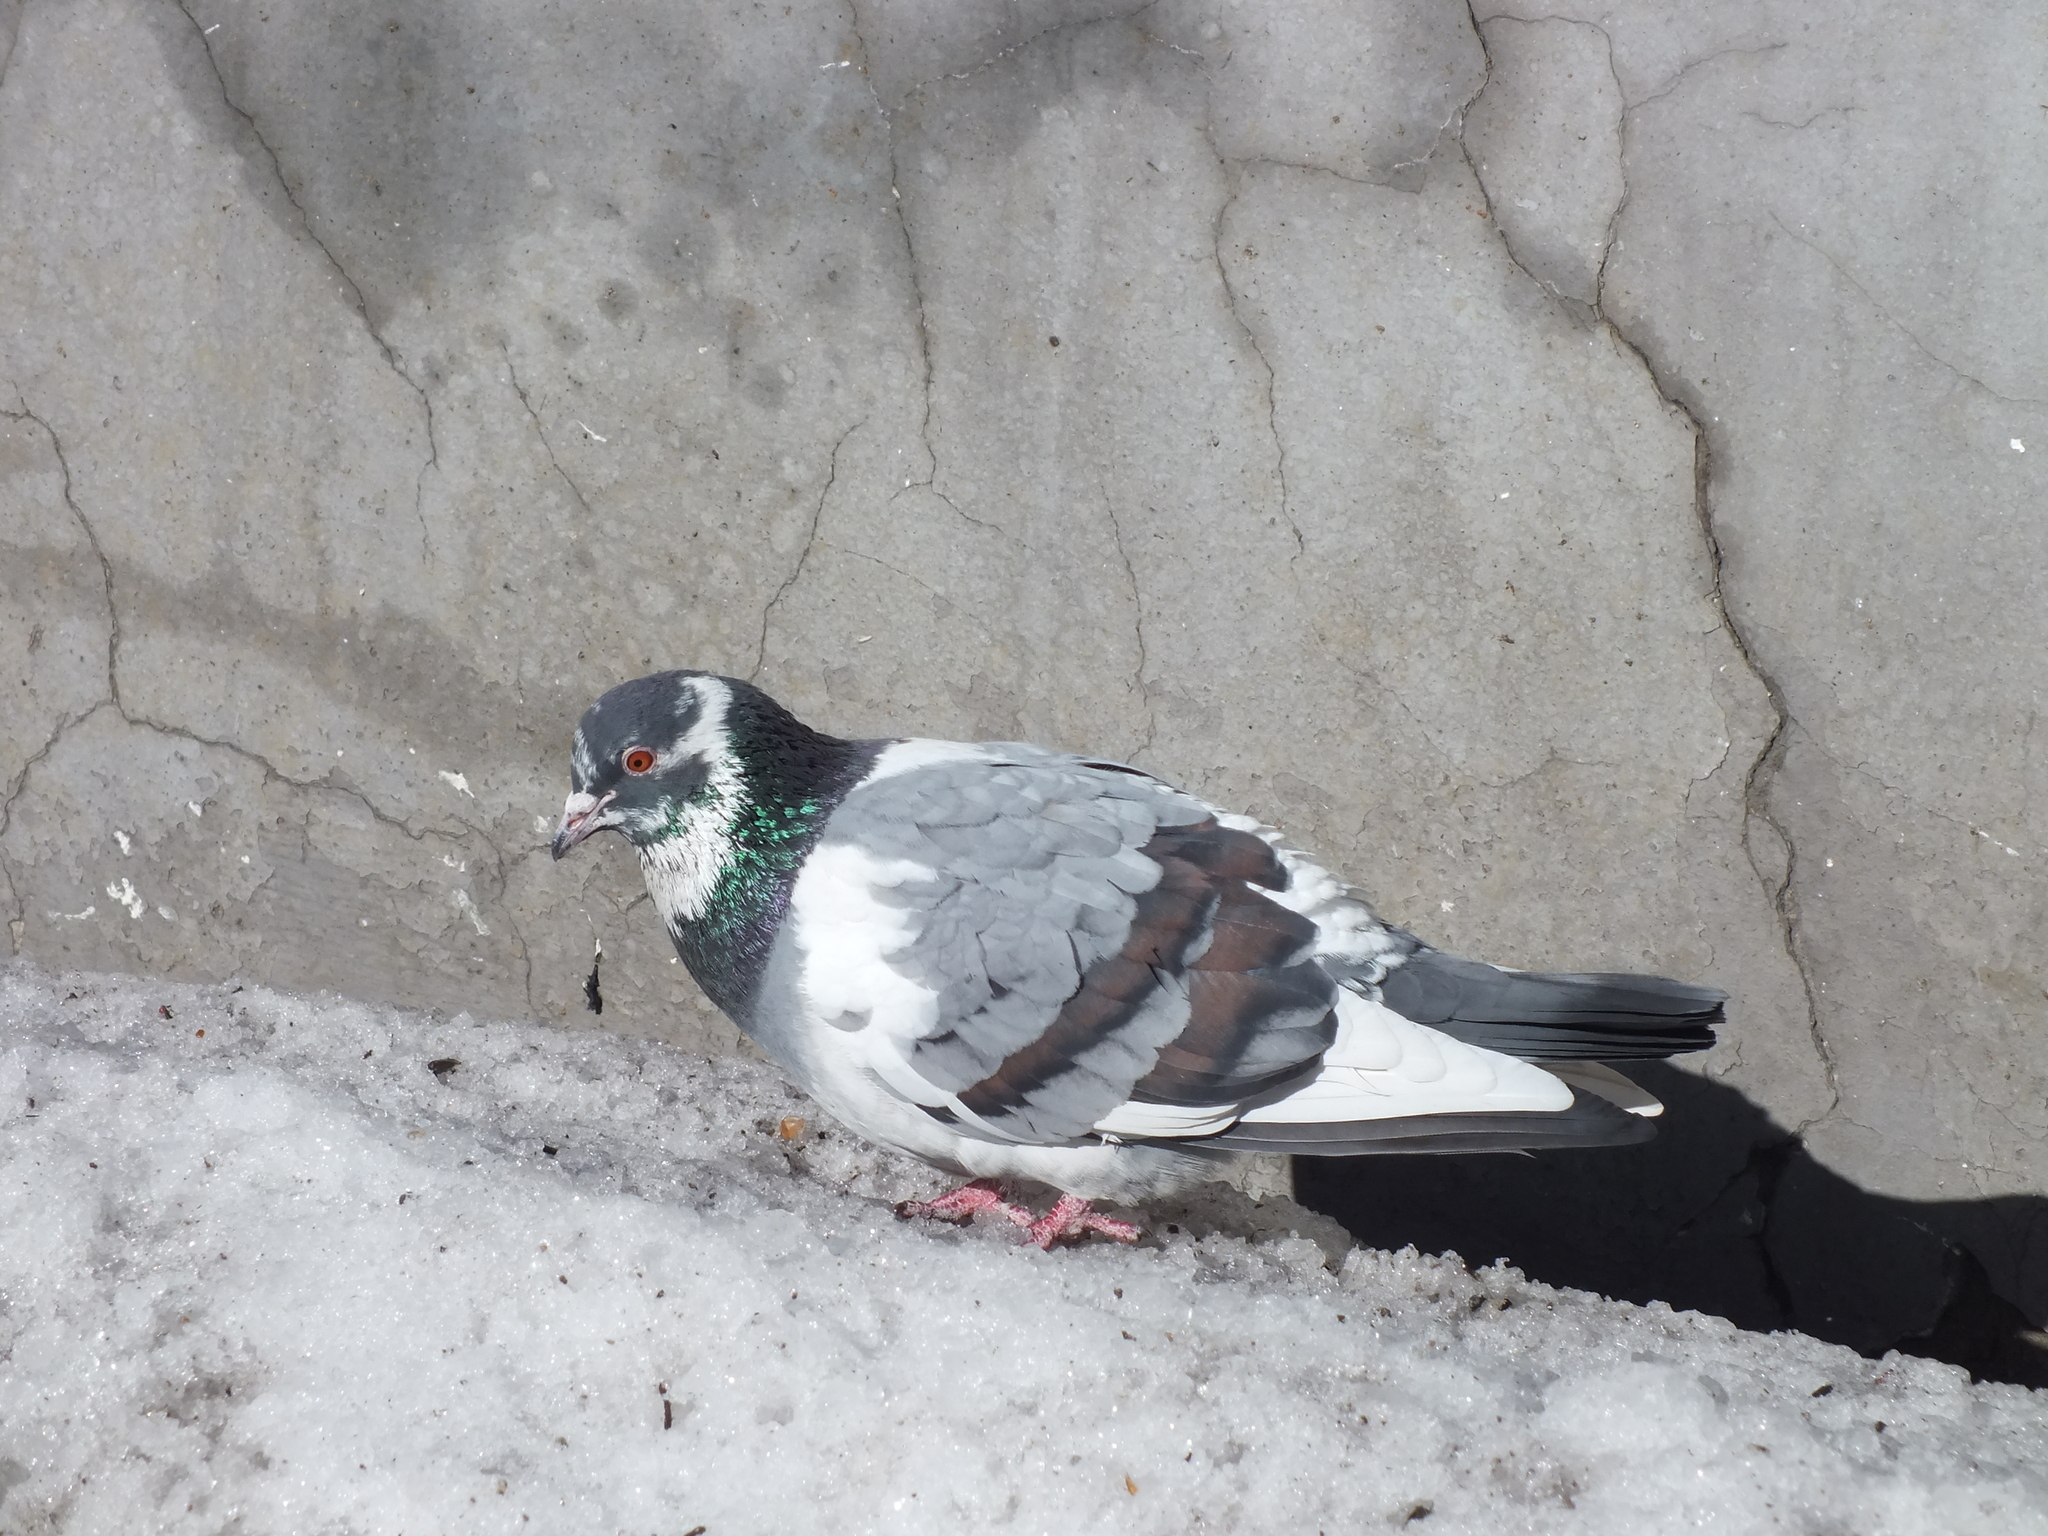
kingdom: Animalia
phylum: Chordata
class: Aves
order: Columbiformes
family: Columbidae
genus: Columba
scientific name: Columba livia
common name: Rock pigeon
